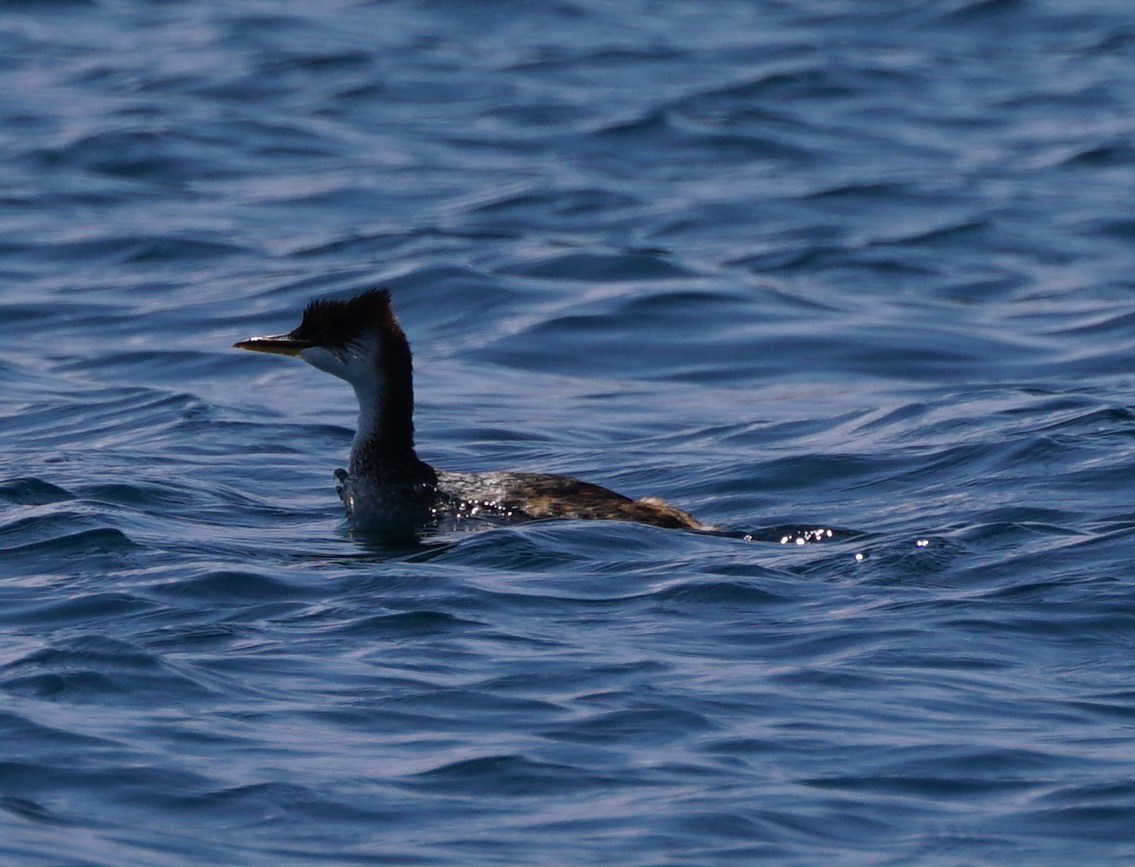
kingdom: Animalia
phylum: Chordata
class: Aves
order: Podicipediformes
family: Podicipedidae
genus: Rollandia
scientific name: Rollandia microptera
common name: Titicaca grebe
